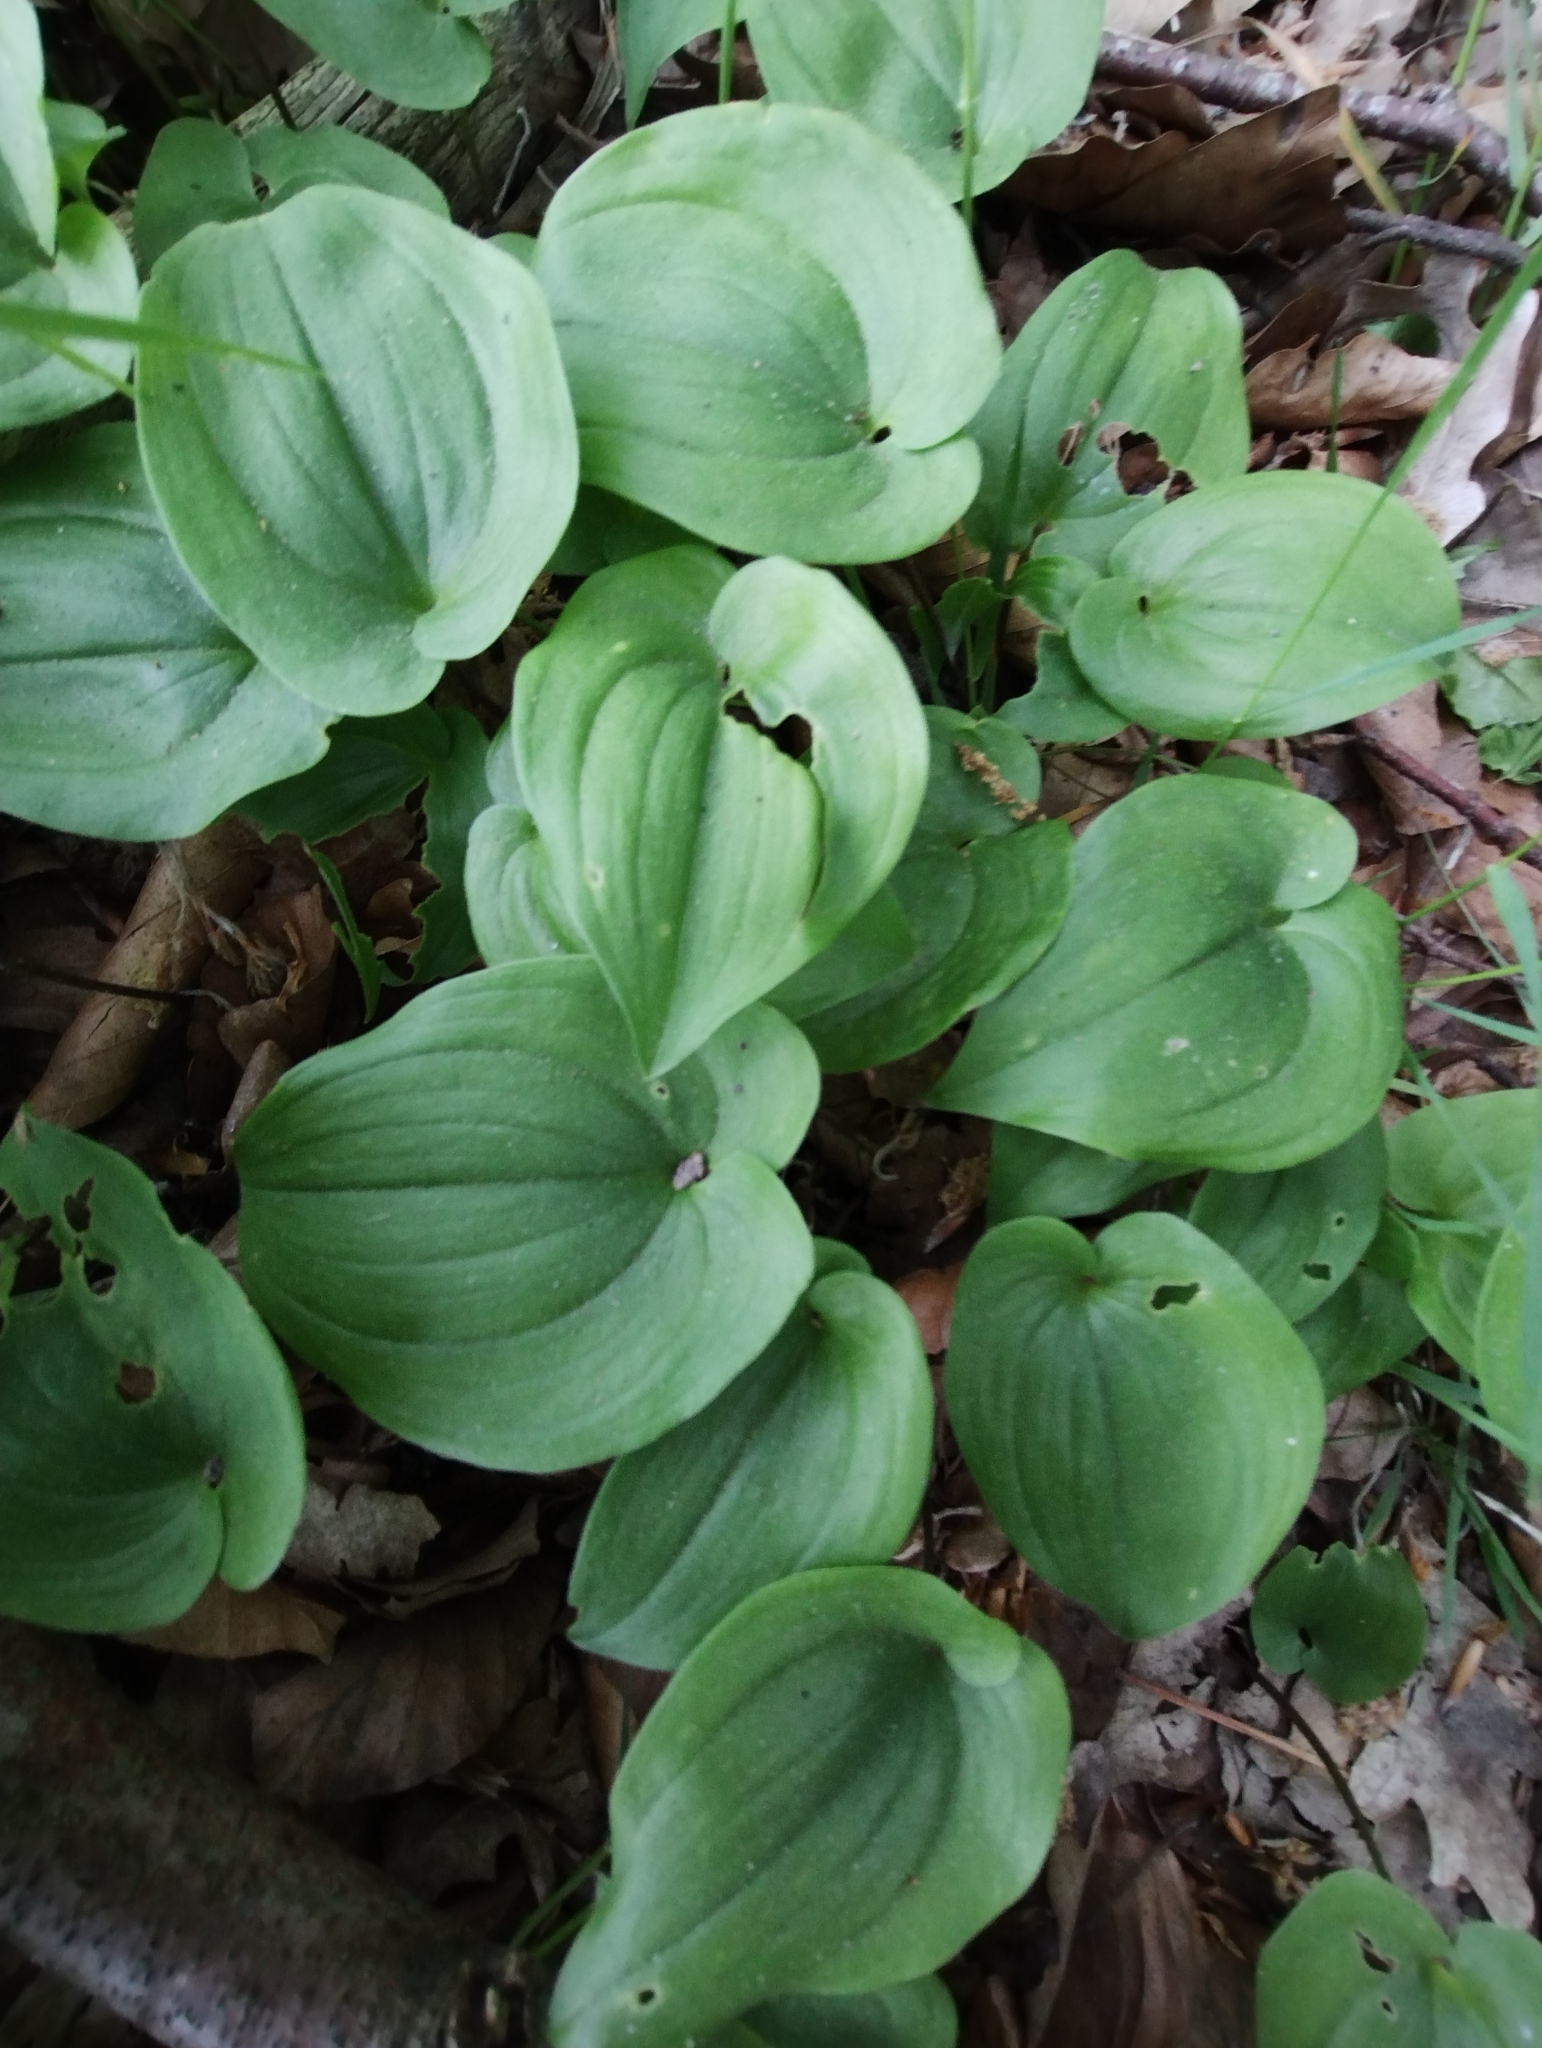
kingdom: Plantae
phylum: Tracheophyta
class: Liliopsida
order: Asparagales
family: Asparagaceae
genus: Maianthemum
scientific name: Maianthemum bifolium
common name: May lily
